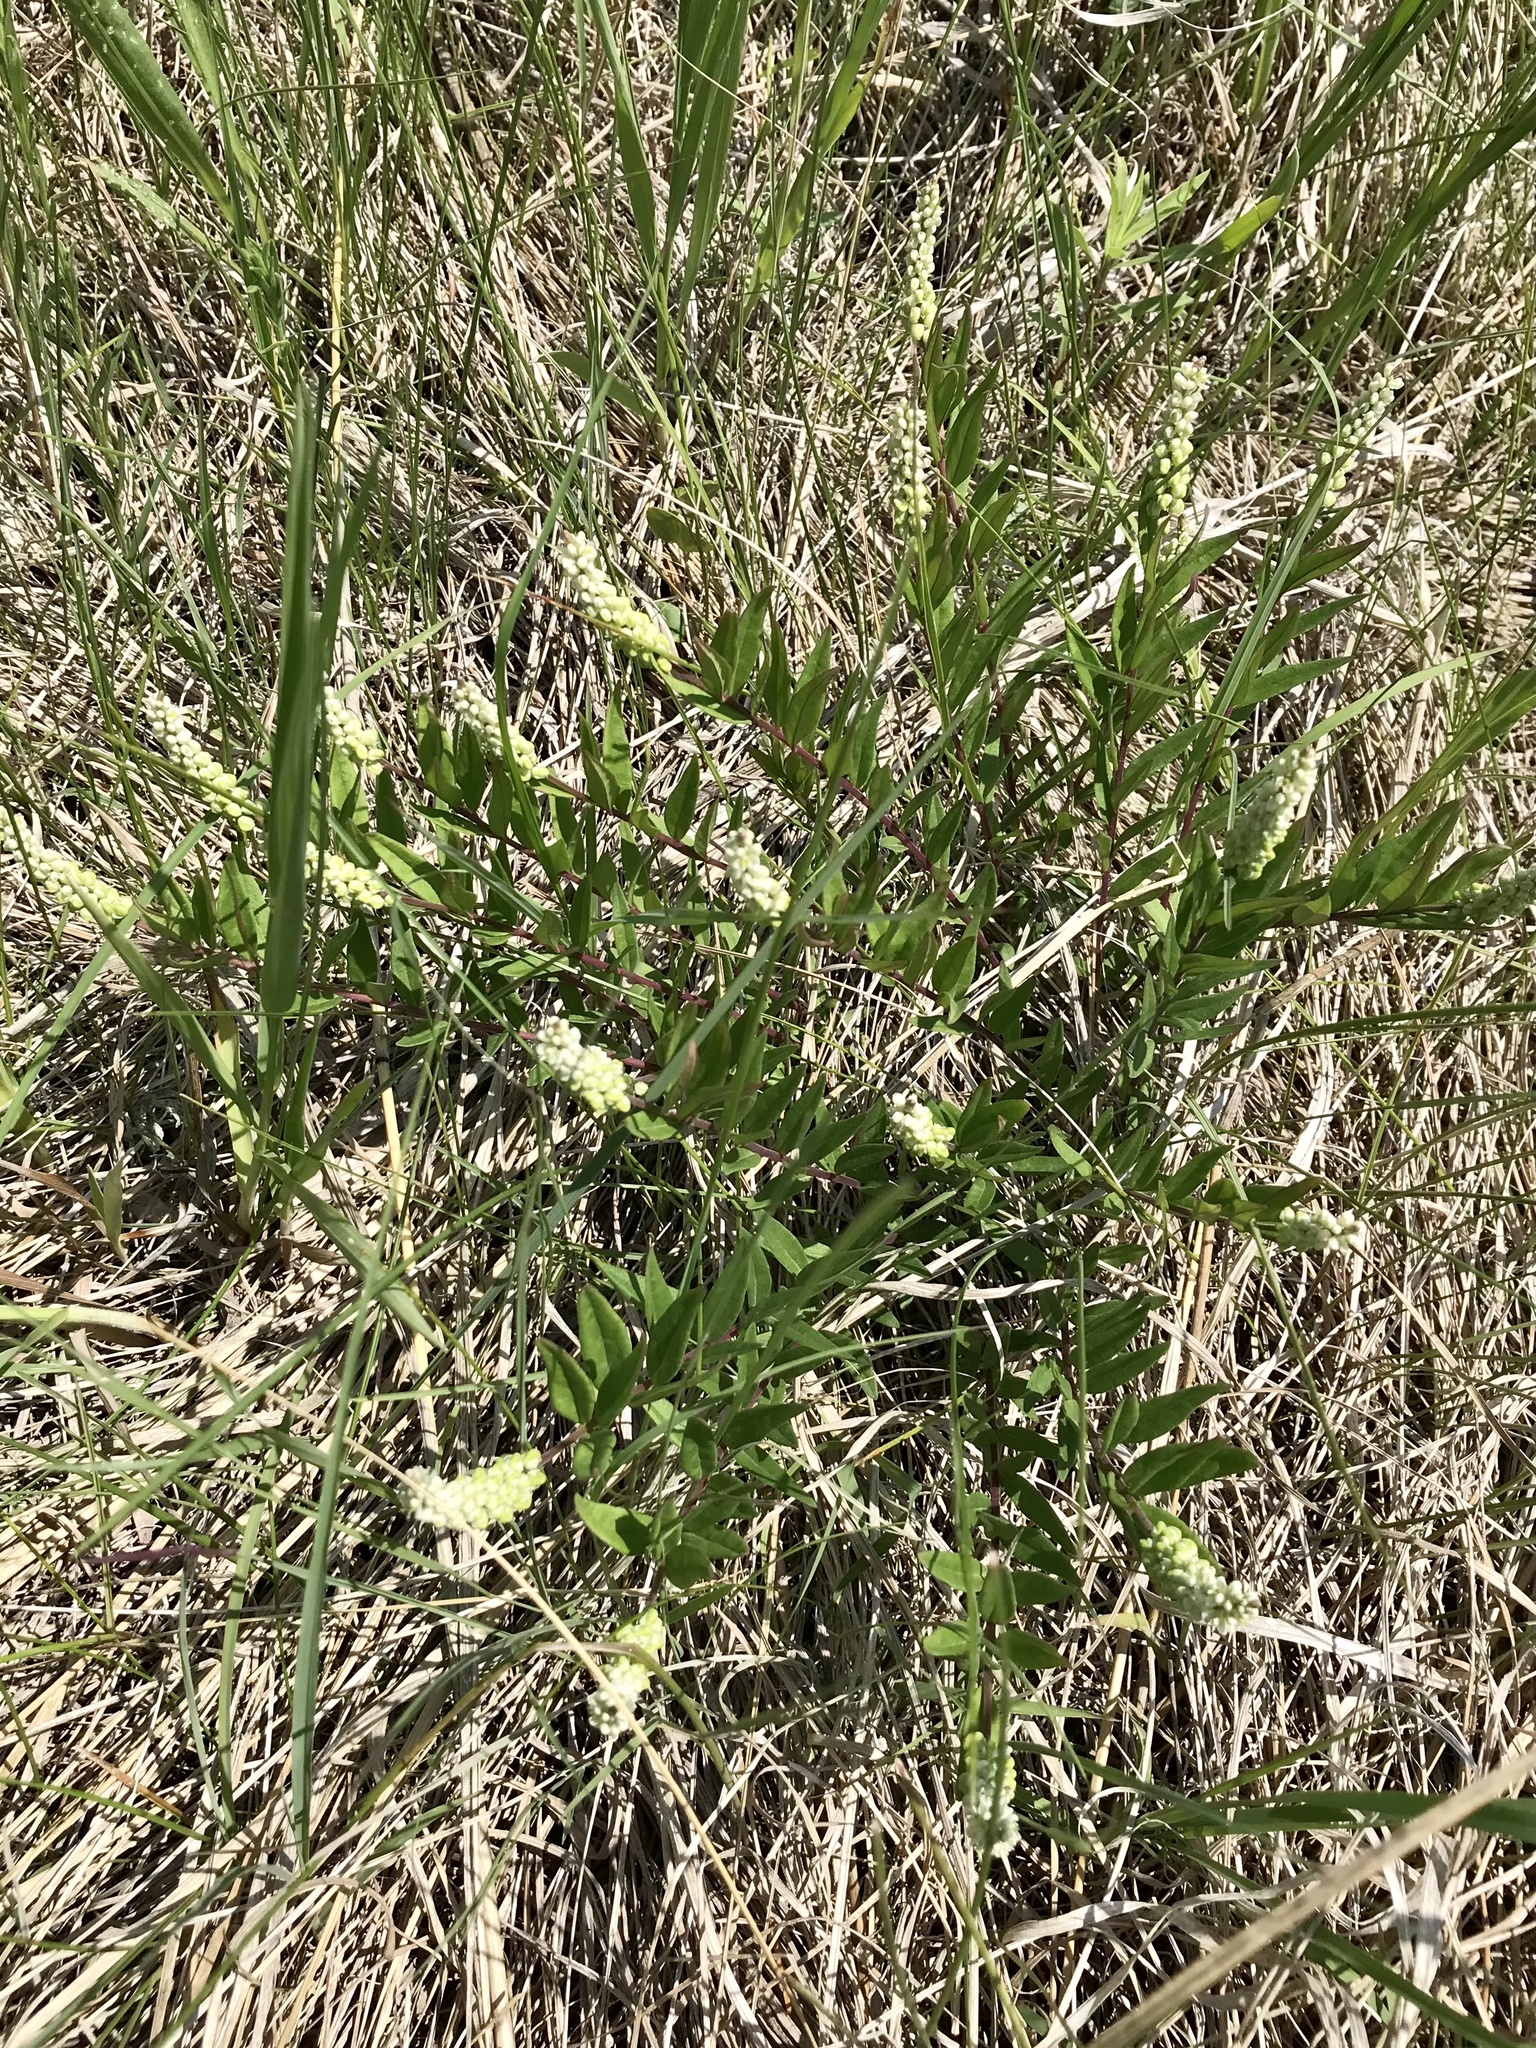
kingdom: Plantae
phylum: Tracheophyta
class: Magnoliopsida
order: Fabales
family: Polygalaceae
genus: Polygala
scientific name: Polygala senega
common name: Seneca snakeroot
